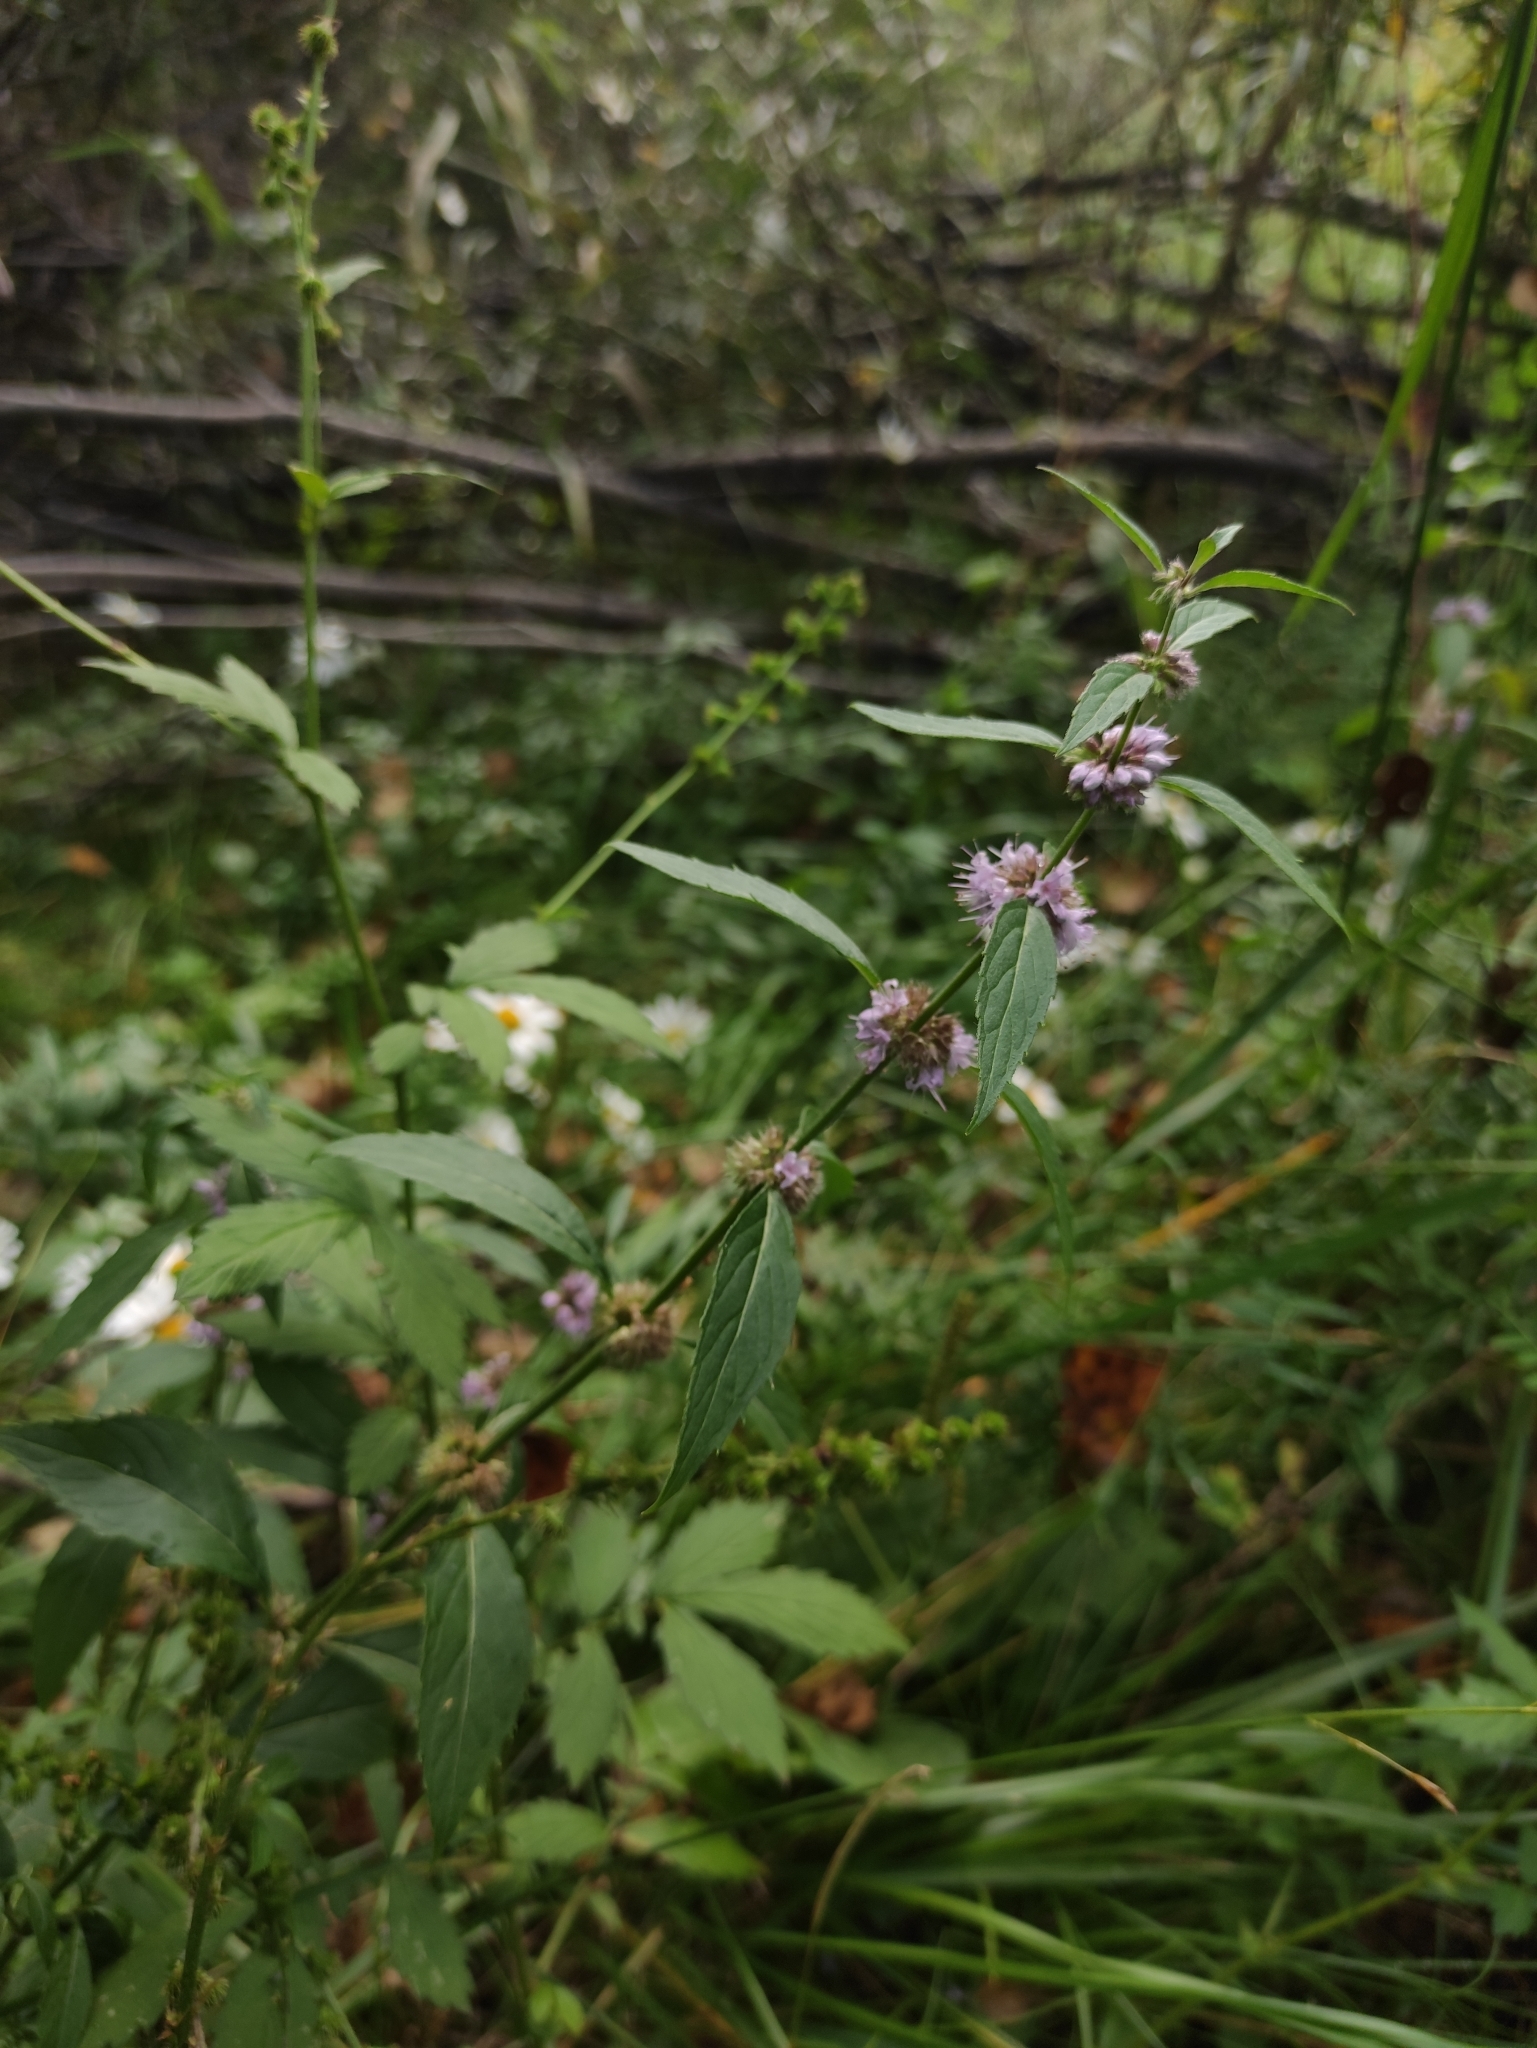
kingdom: Plantae
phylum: Tracheophyta
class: Magnoliopsida
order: Lamiales
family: Lamiaceae
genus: Mentha
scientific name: Mentha canadensis
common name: American corn mint
